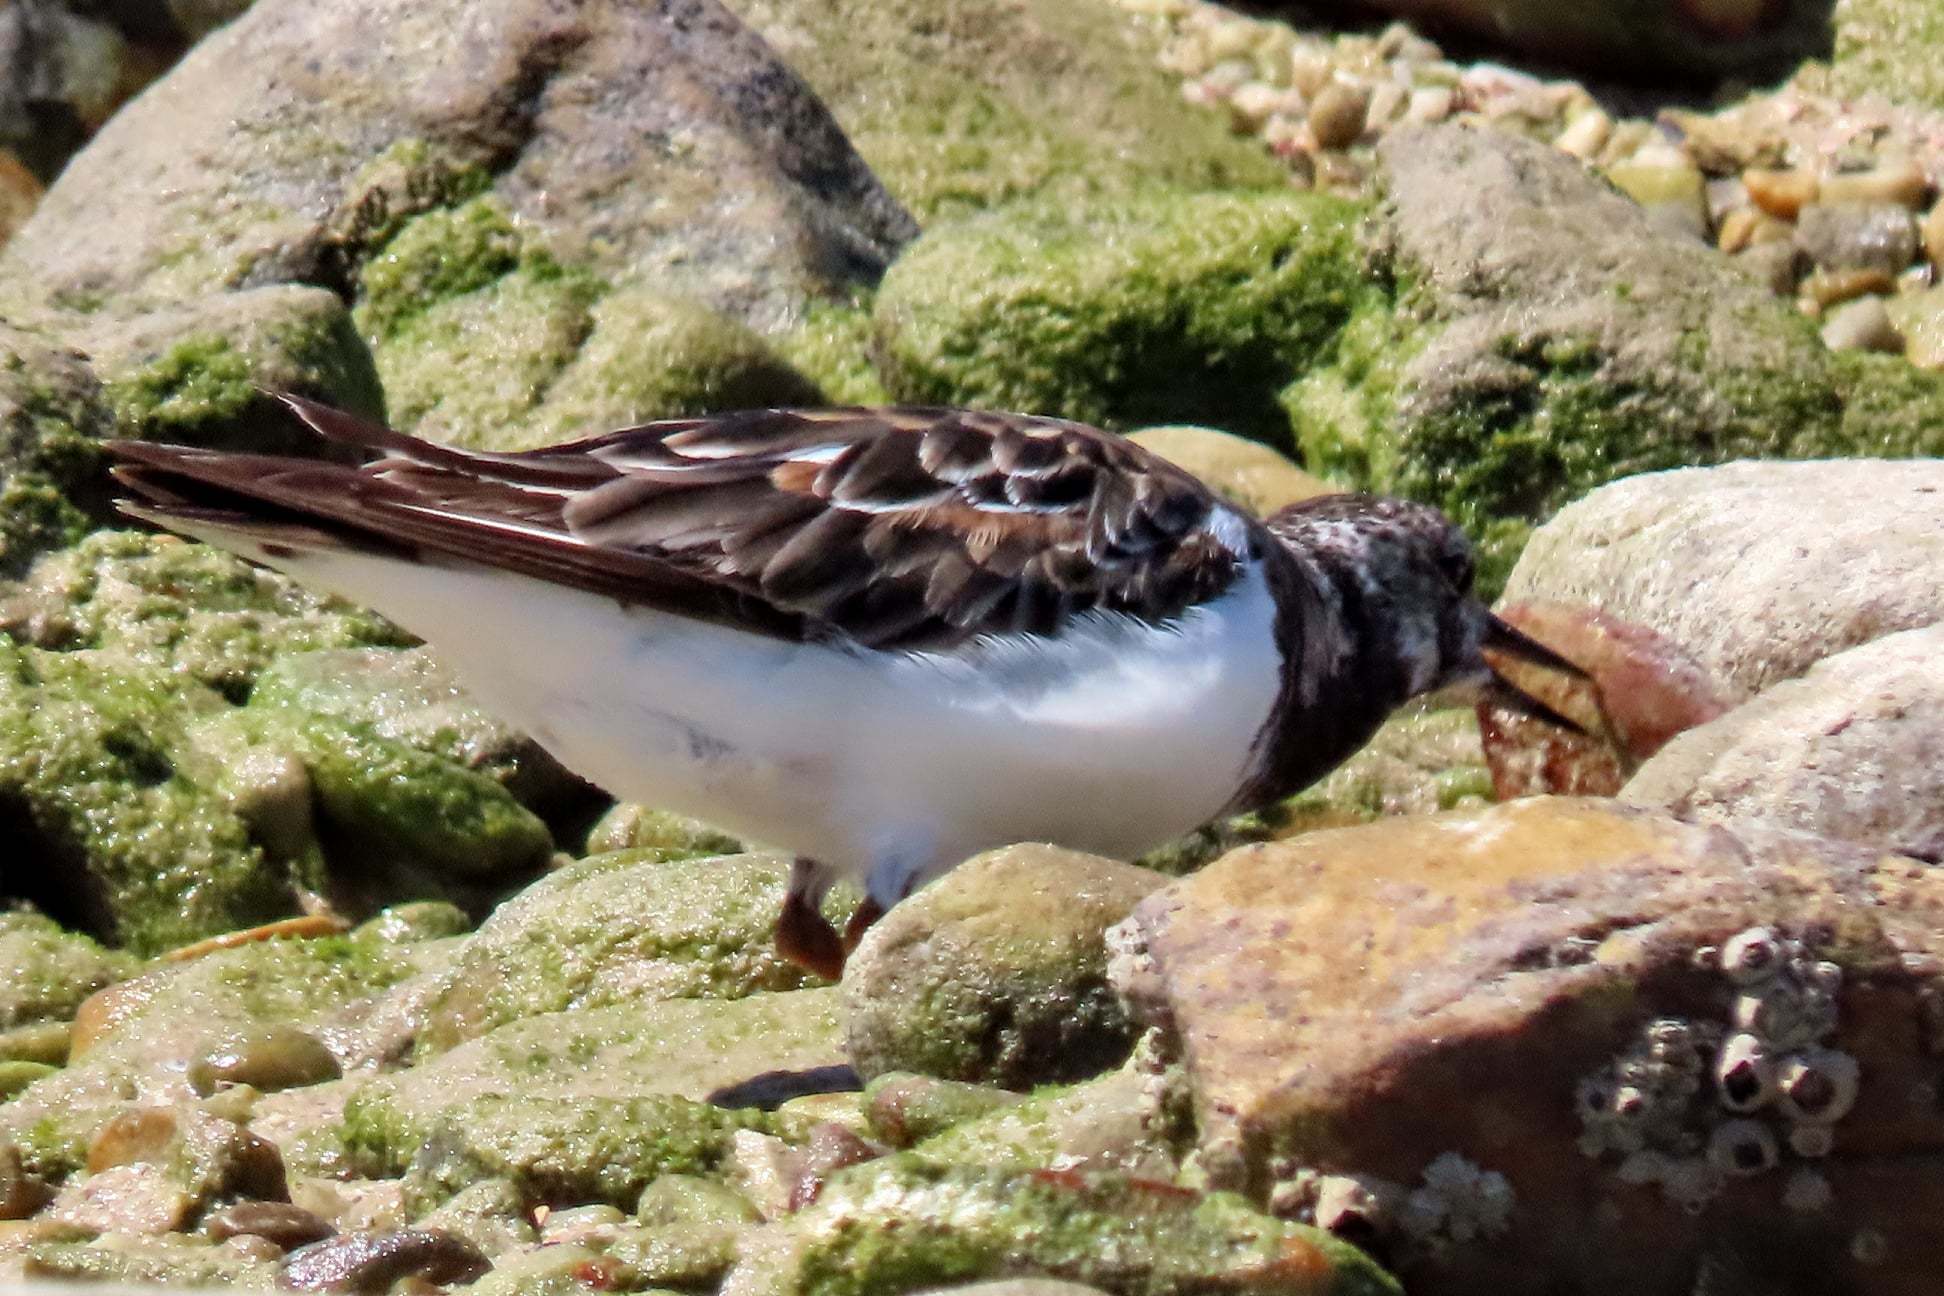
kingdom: Animalia
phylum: Chordata
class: Aves
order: Charadriiformes
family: Scolopacidae
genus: Arenaria
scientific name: Arenaria interpres
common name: Ruddy turnstone
